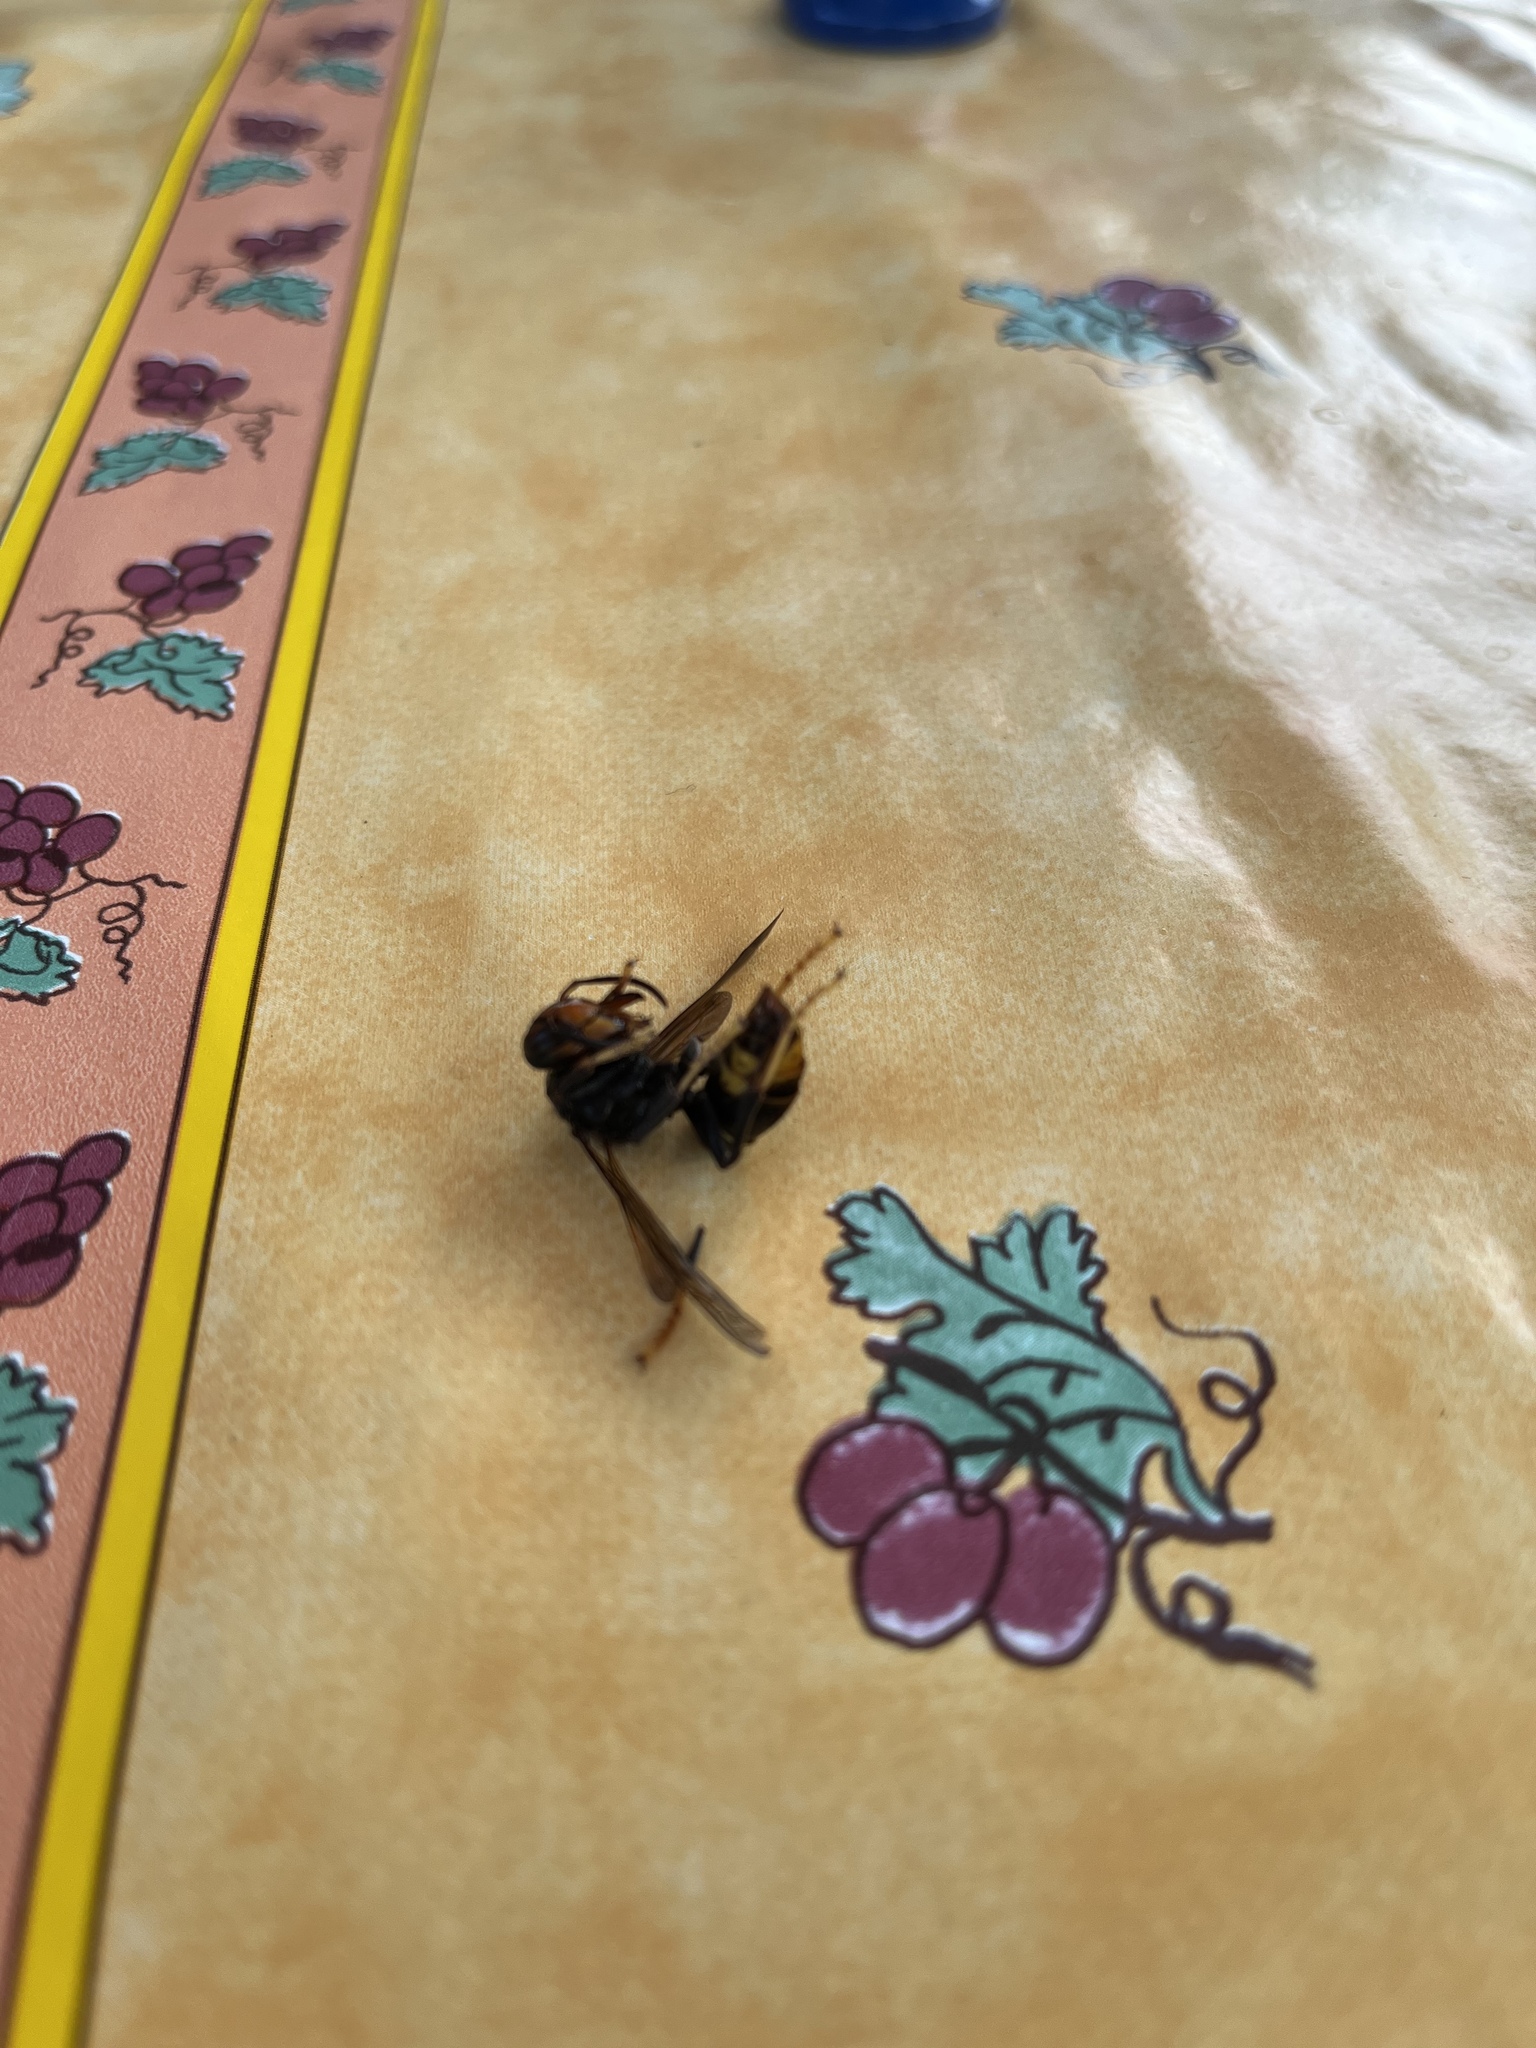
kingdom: Animalia
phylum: Arthropoda
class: Insecta
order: Hymenoptera
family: Vespidae
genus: Vespa
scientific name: Vespa velutina
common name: Asian hornet
